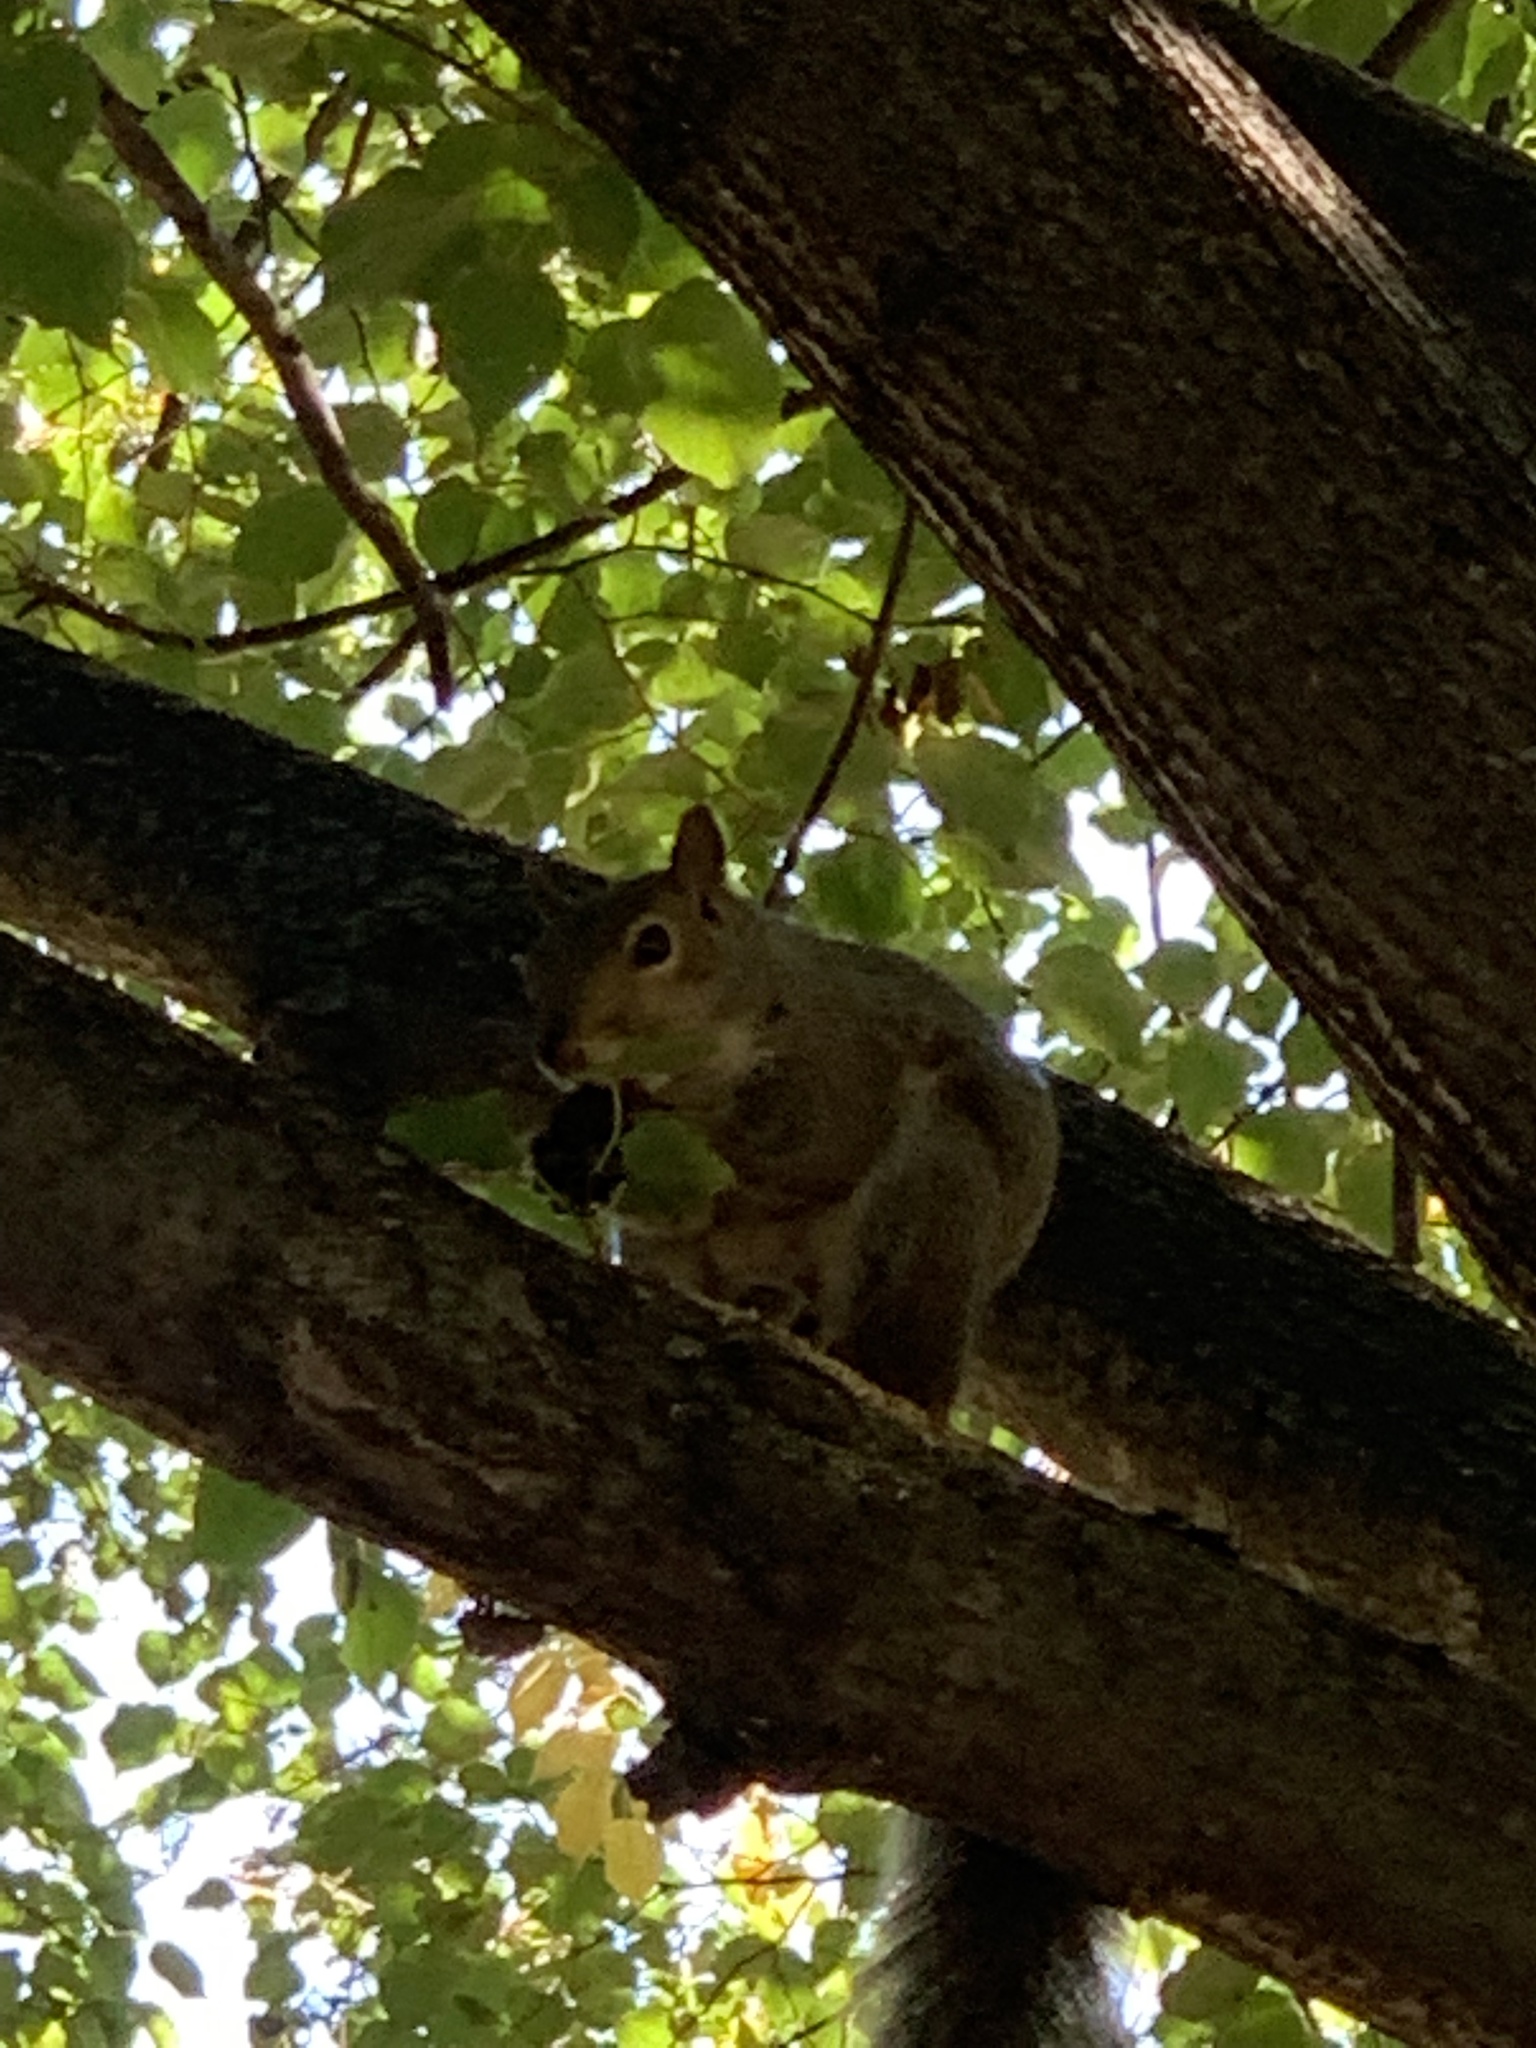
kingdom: Animalia
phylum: Chordata
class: Mammalia
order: Rodentia
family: Sciuridae
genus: Sciurus
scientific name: Sciurus carolinensis
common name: Eastern gray squirrel
